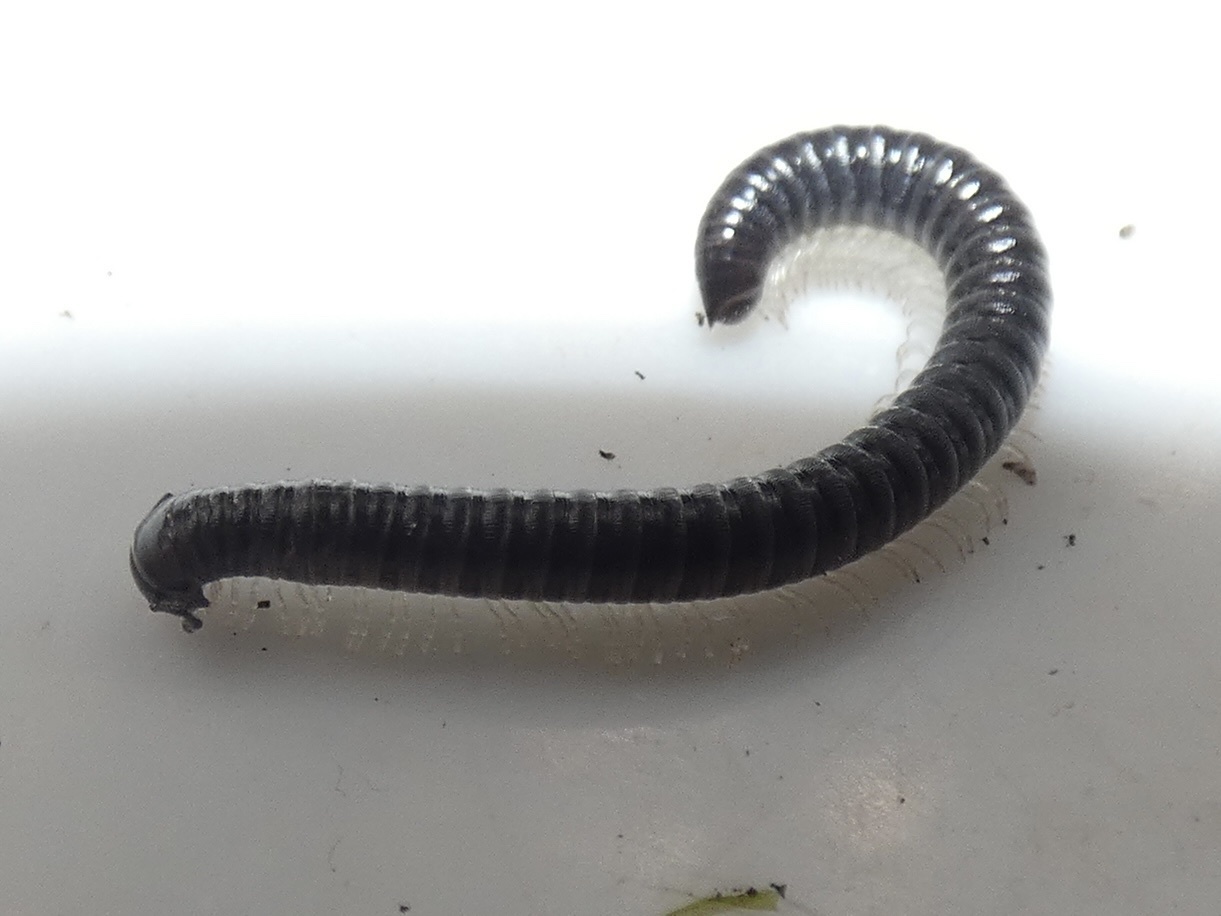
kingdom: Animalia
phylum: Arthropoda
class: Diplopoda
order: Julida
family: Julidae
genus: Tachypodoiulus
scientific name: Tachypodoiulus niger
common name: White-legged snake millipede
